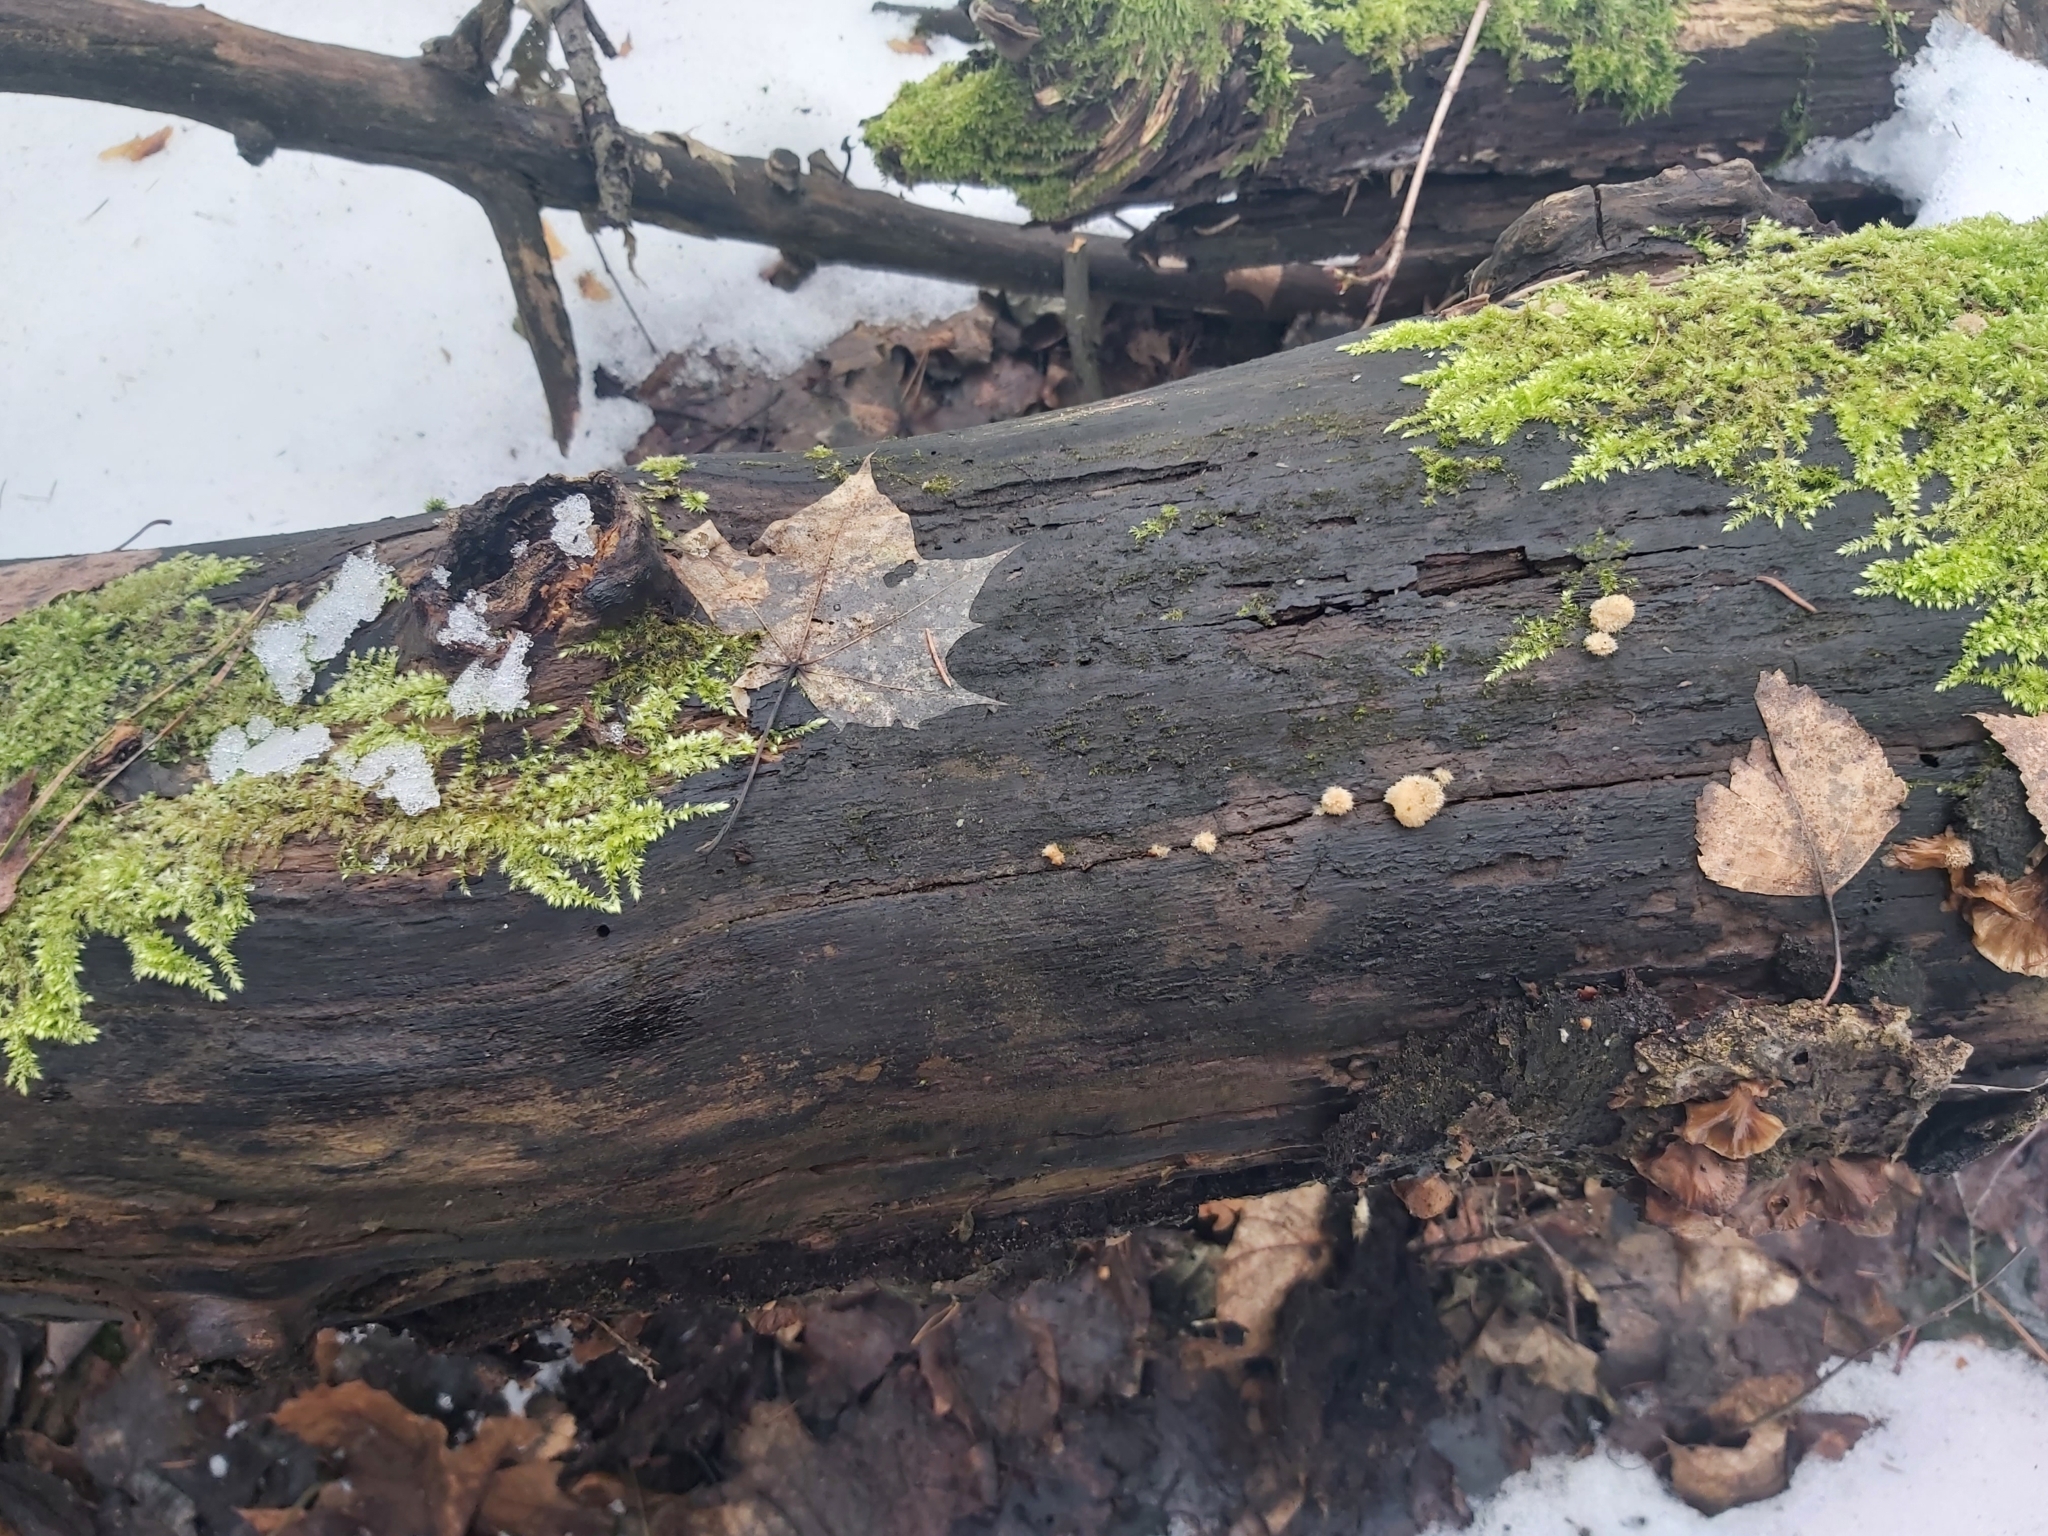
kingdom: Fungi
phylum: Basidiomycota
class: Agaricomycetes
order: Polyporales
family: Dacryobolaceae
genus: Postia
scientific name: Postia ptychogaster
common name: Powderpuff bracket
